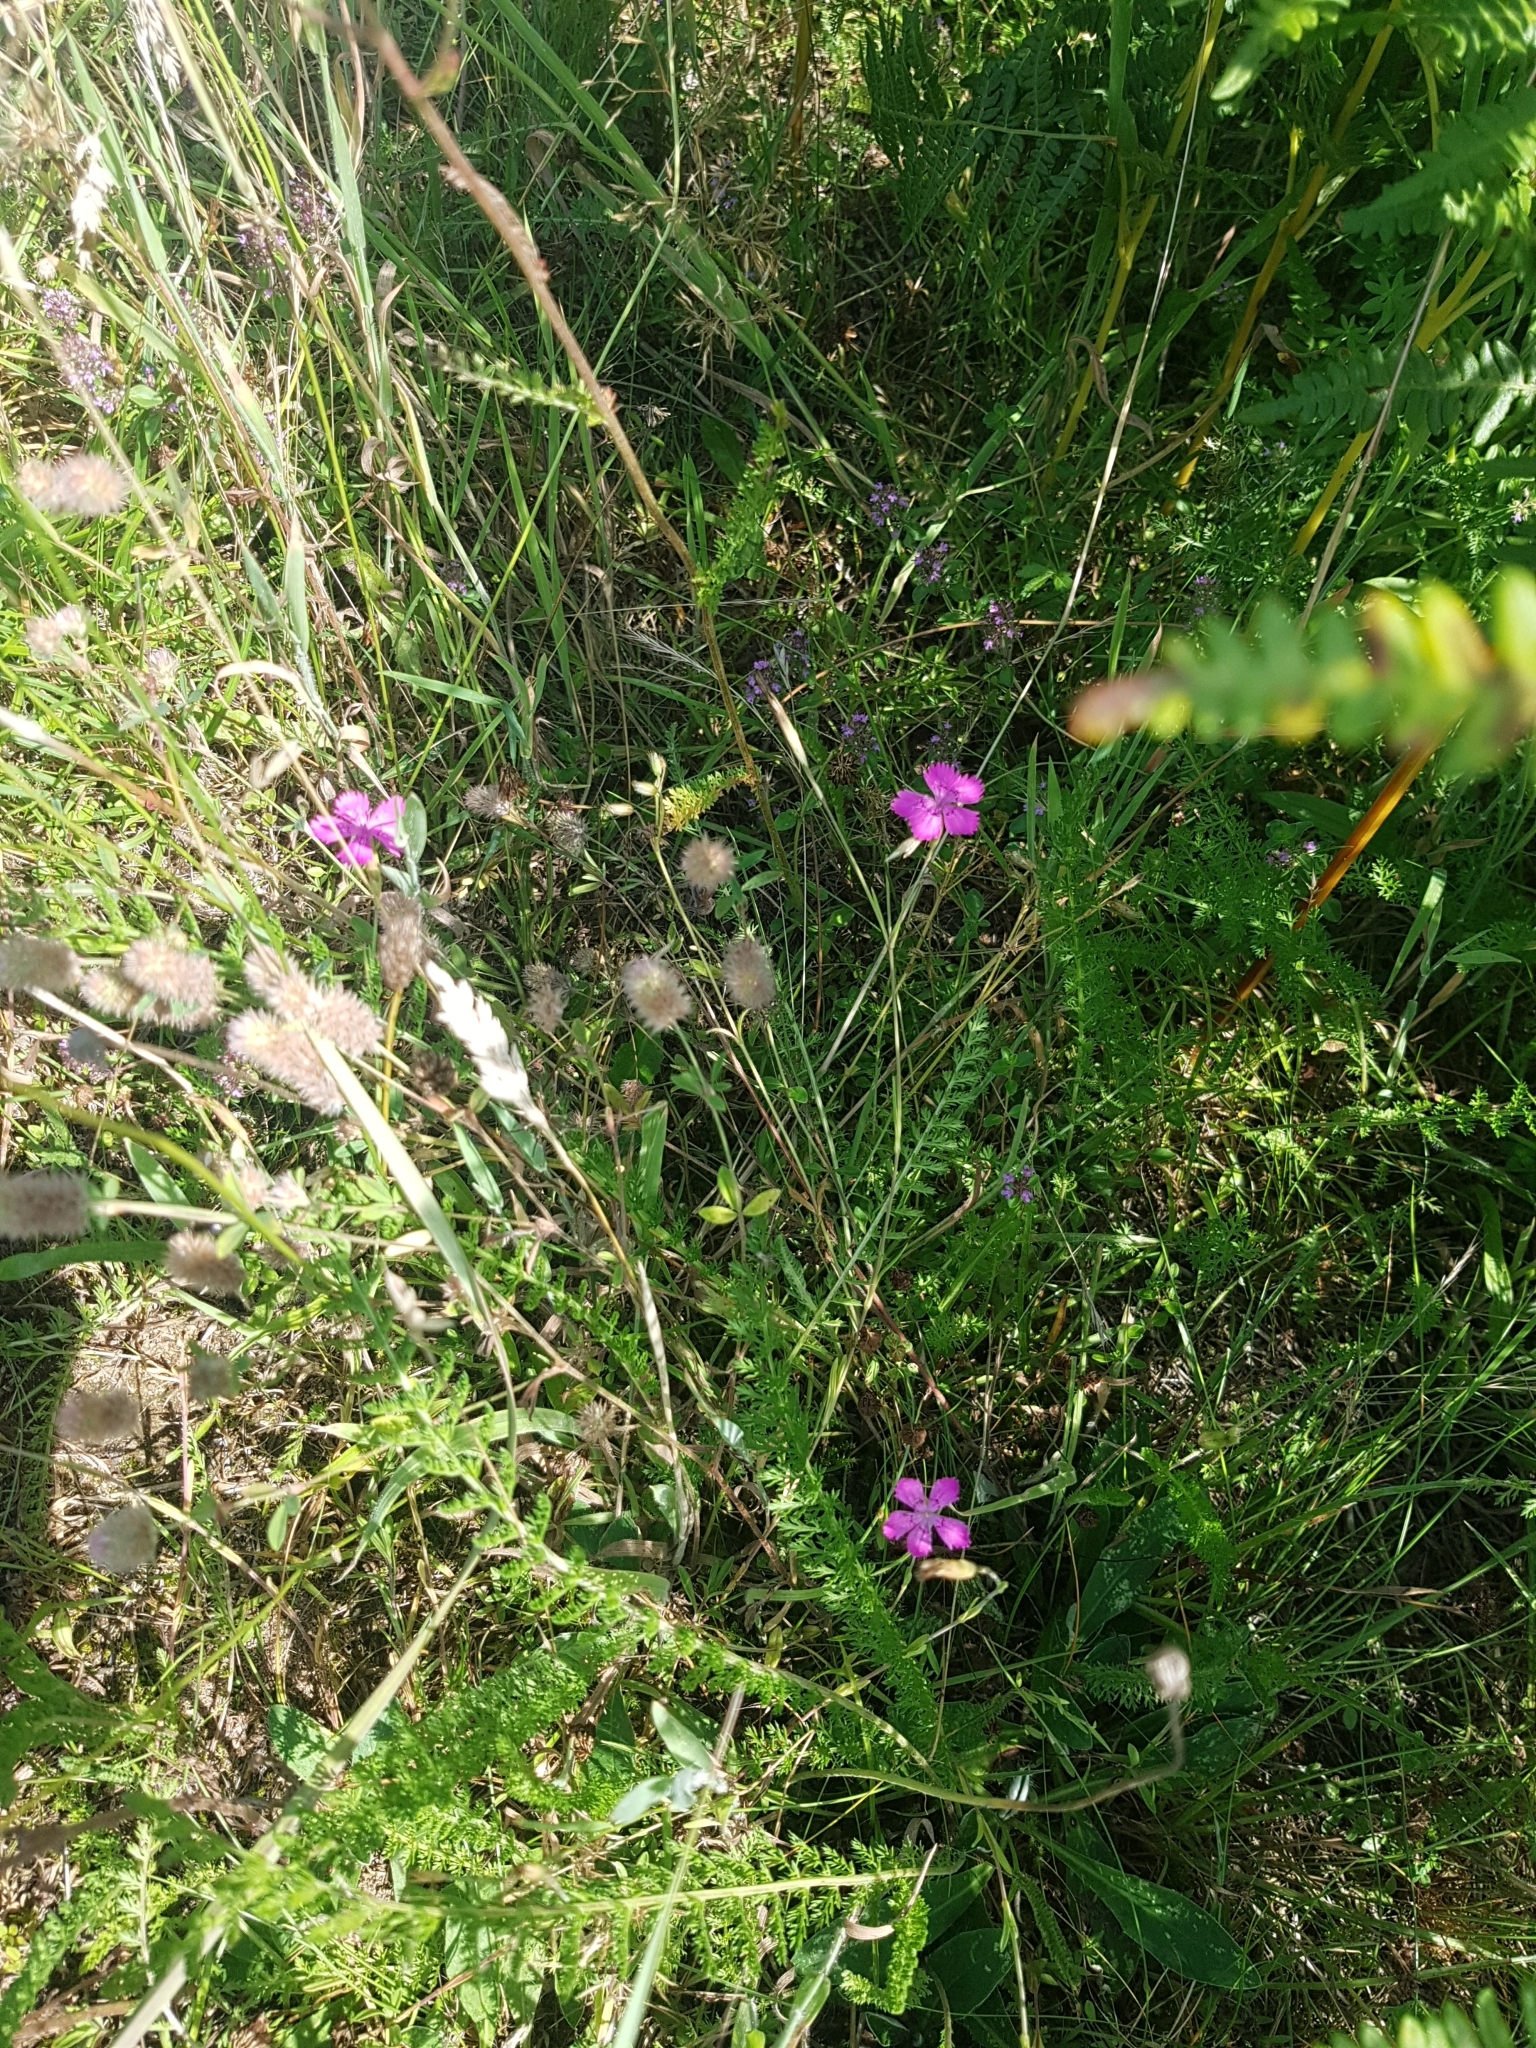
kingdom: Plantae
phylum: Tracheophyta
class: Magnoliopsida
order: Caryophyllales
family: Caryophyllaceae
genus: Dianthus
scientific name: Dianthus deltoides
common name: Maiden pink
